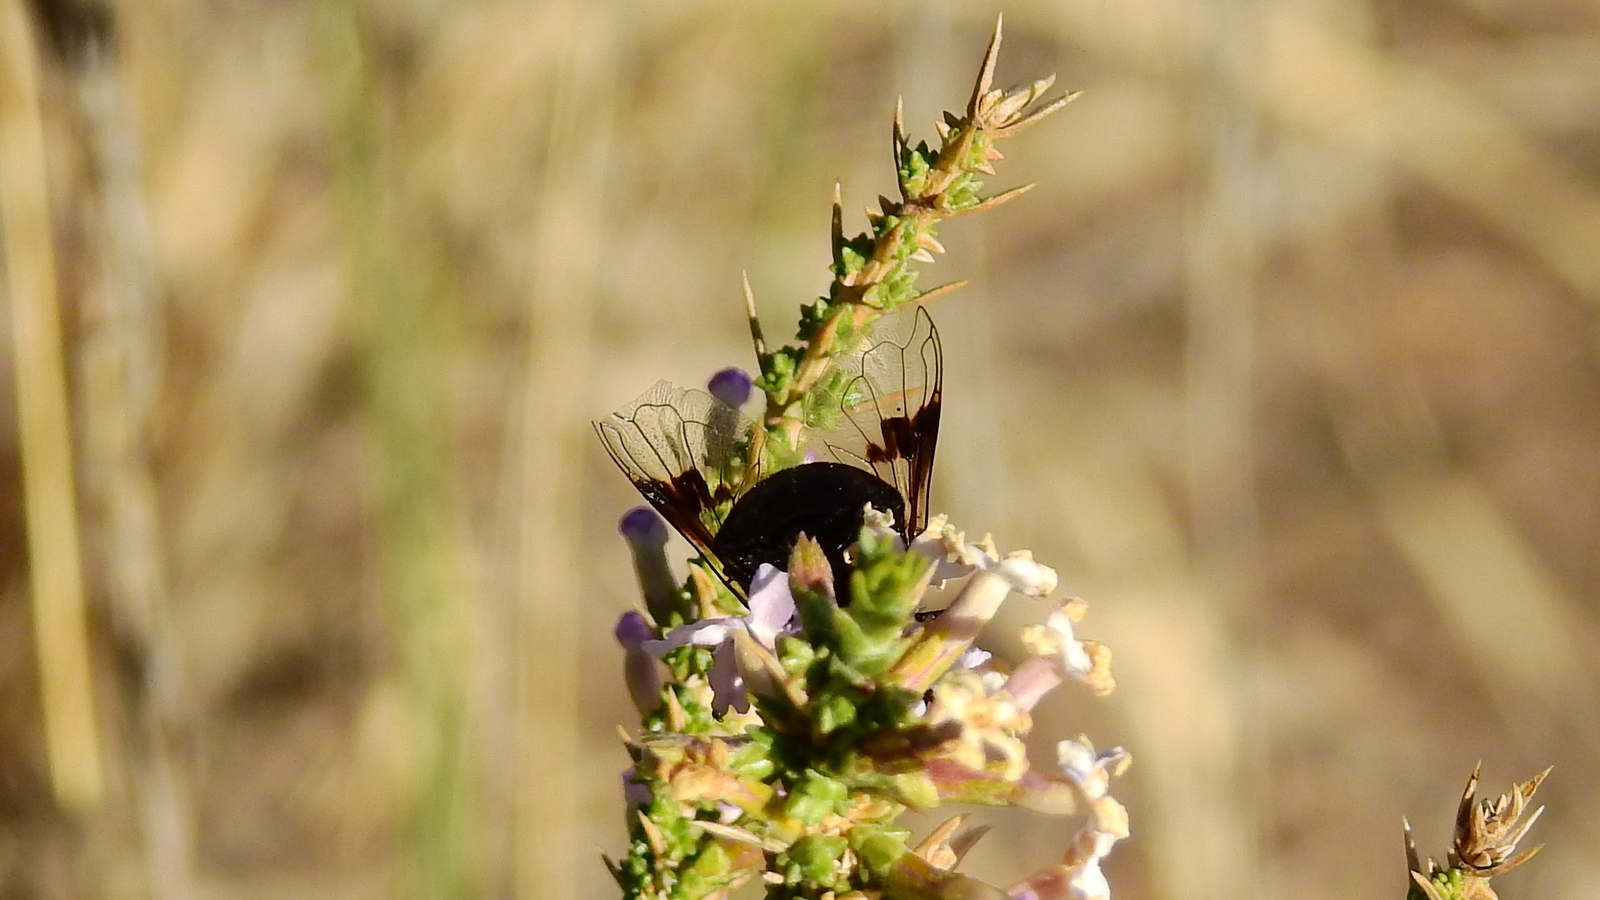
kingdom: Animalia
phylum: Arthropoda
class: Insecta
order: Diptera
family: Syrphidae
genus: Copestylum
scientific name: Copestylum spinigerum
